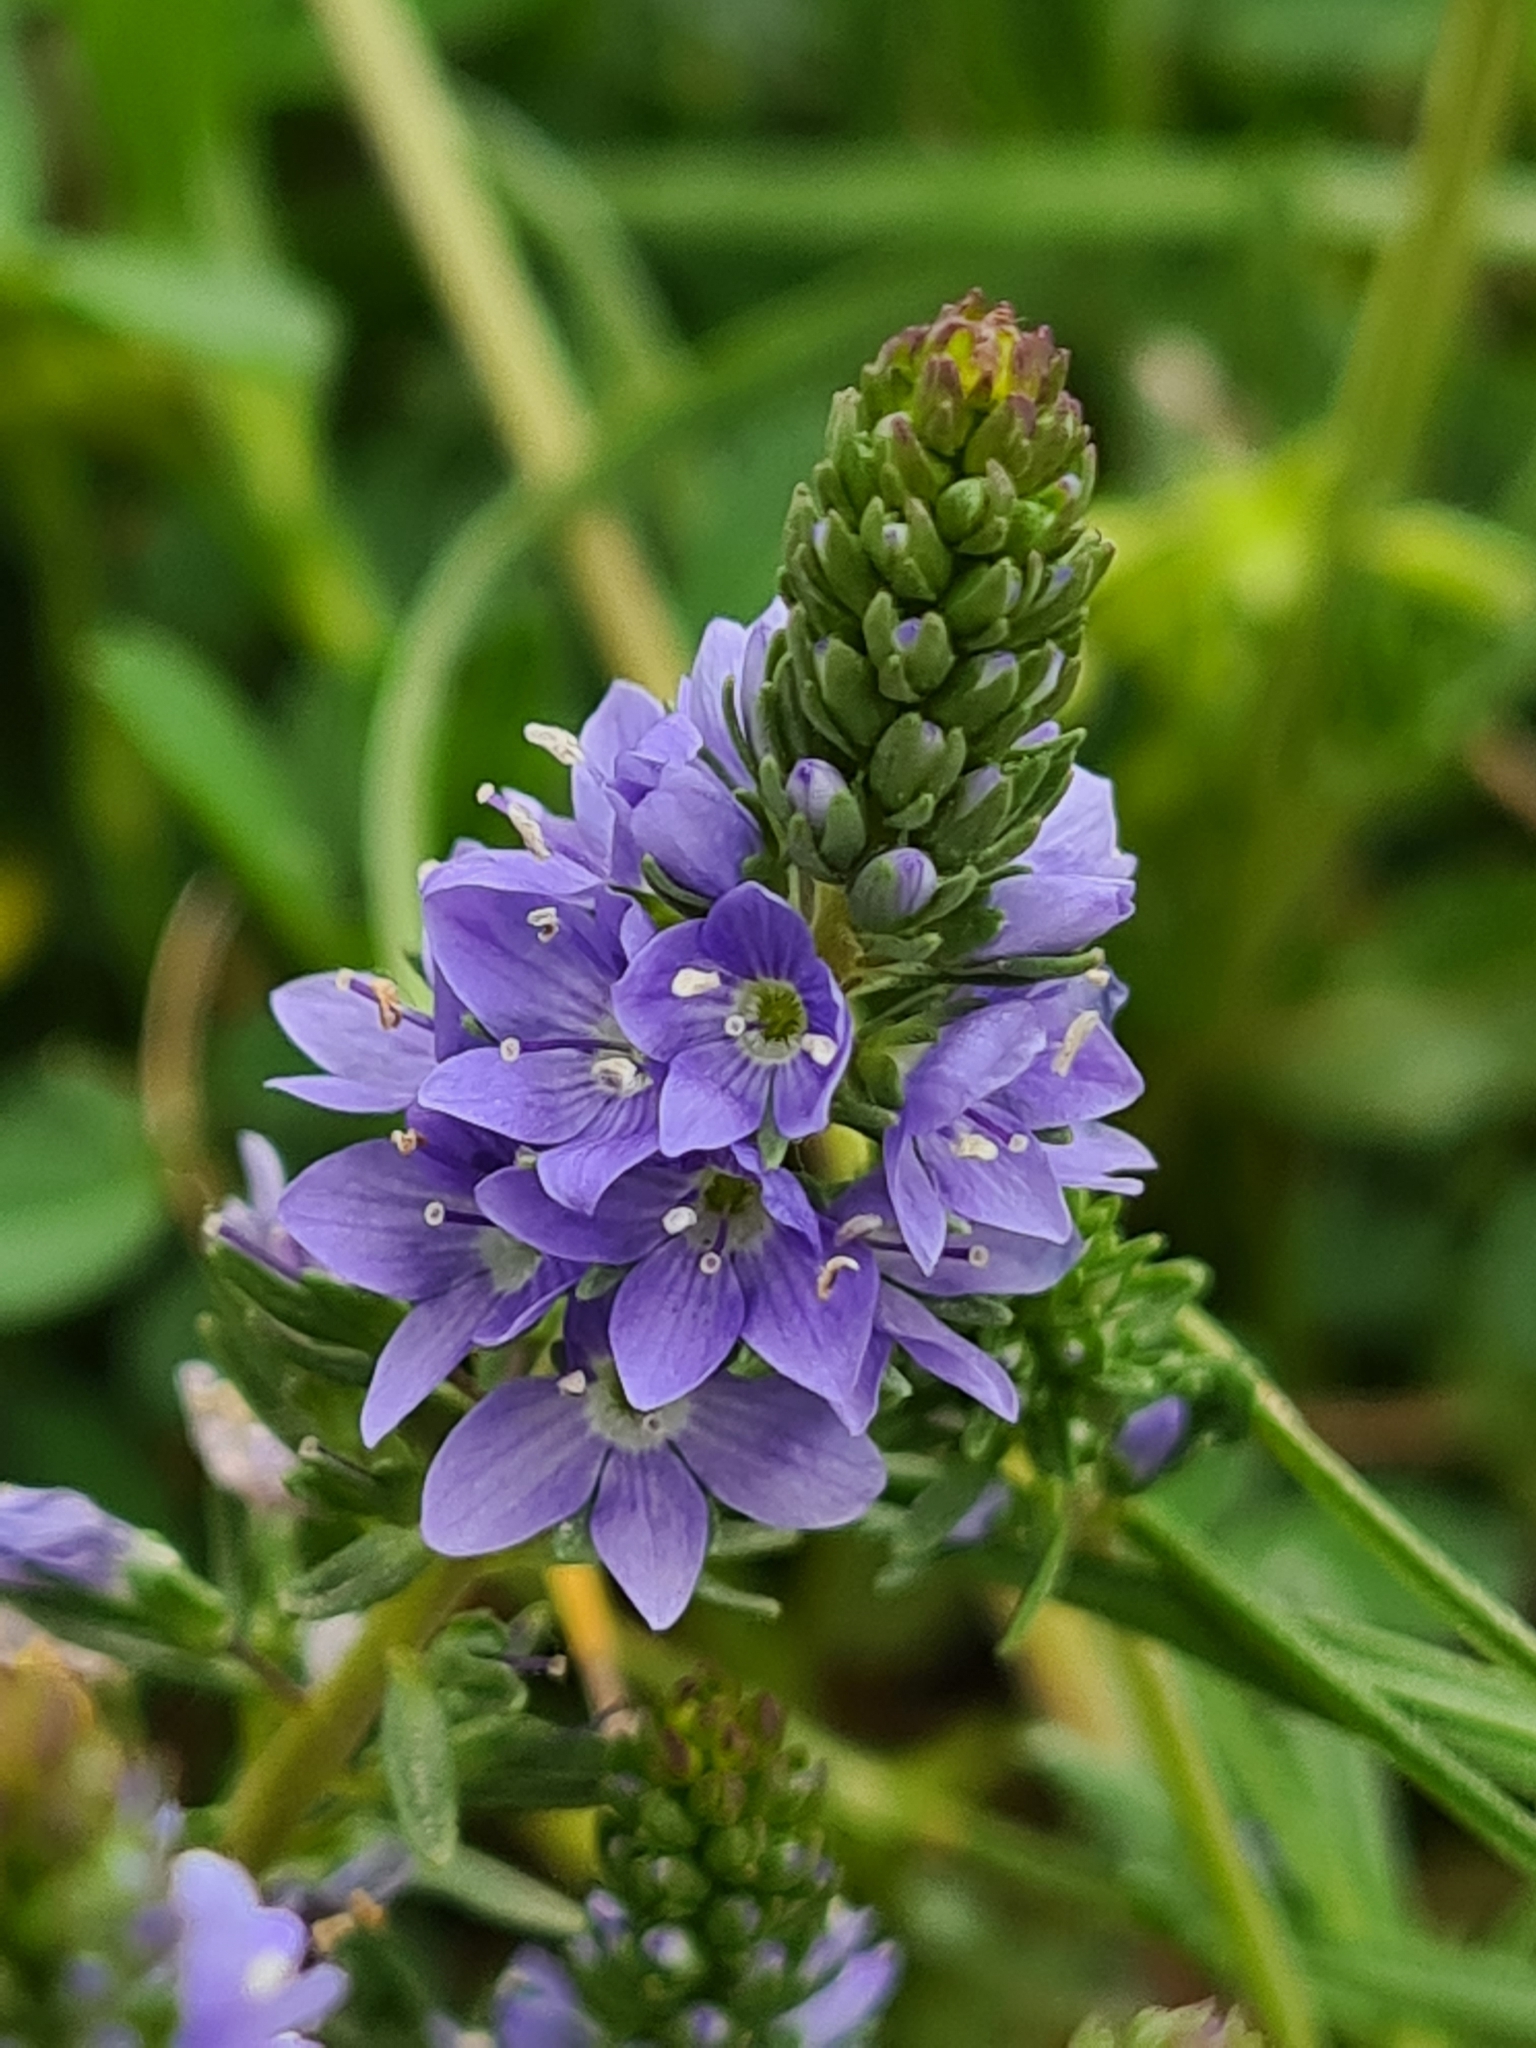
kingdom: Plantae
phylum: Tracheophyta
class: Magnoliopsida
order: Lamiales
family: Plantaginaceae
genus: Veronica
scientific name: Veronica prostrata
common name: Prostrate speedwell
